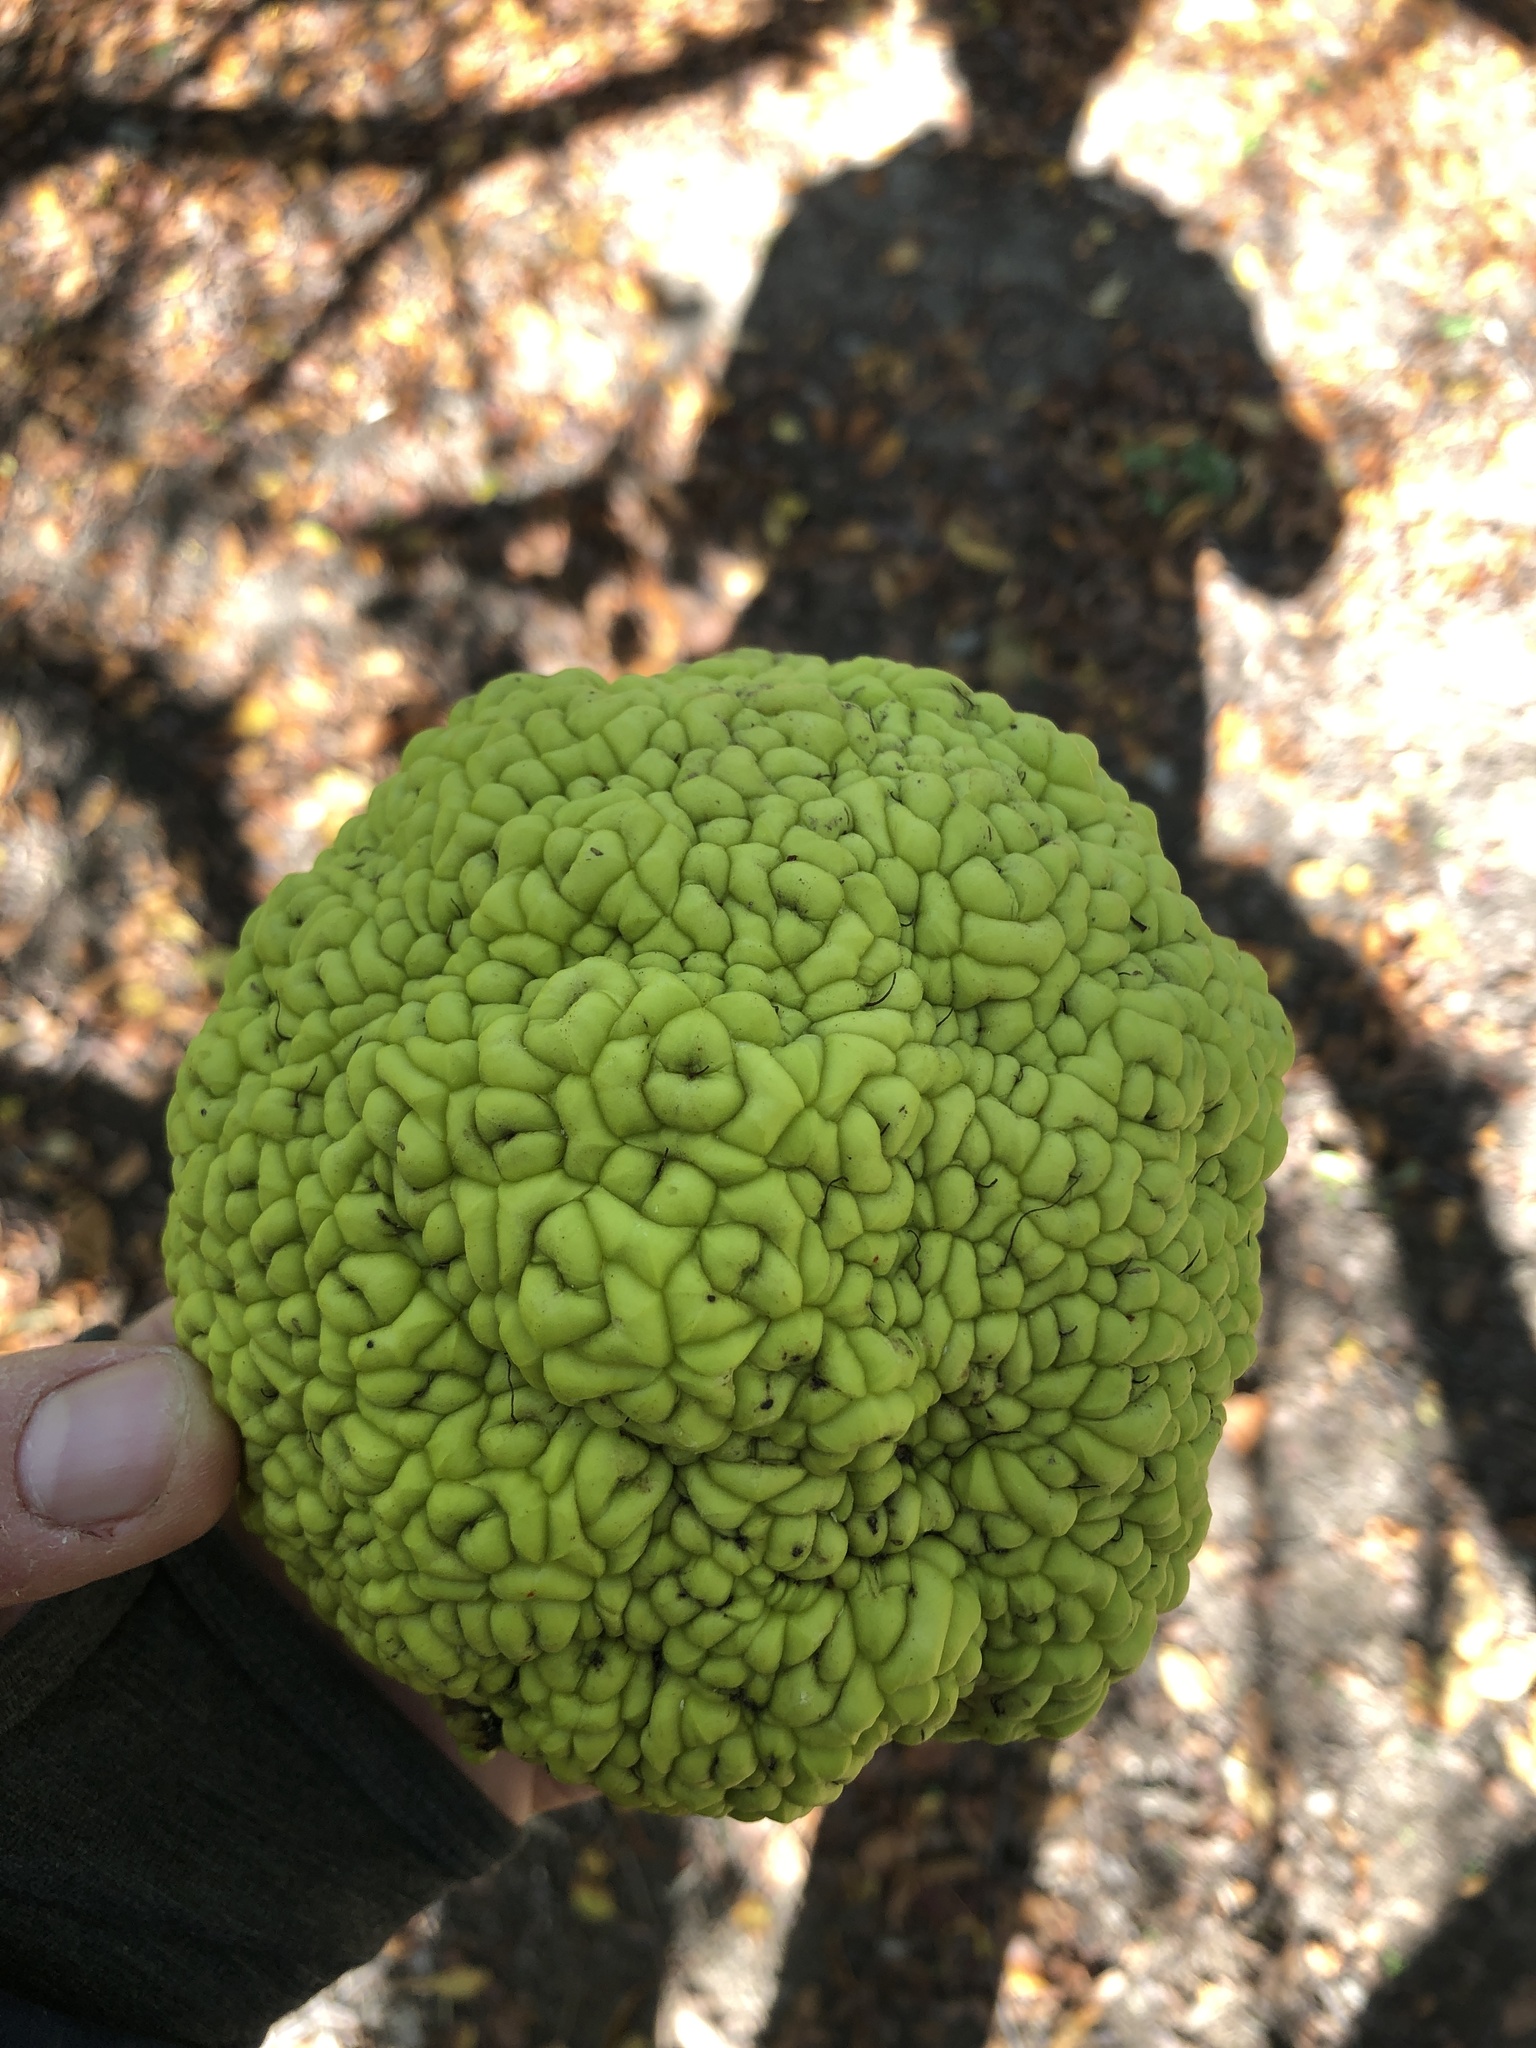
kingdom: Plantae
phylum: Tracheophyta
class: Magnoliopsida
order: Rosales
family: Moraceae
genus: Maclura
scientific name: Maclura pomifera
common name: Osage-orange
